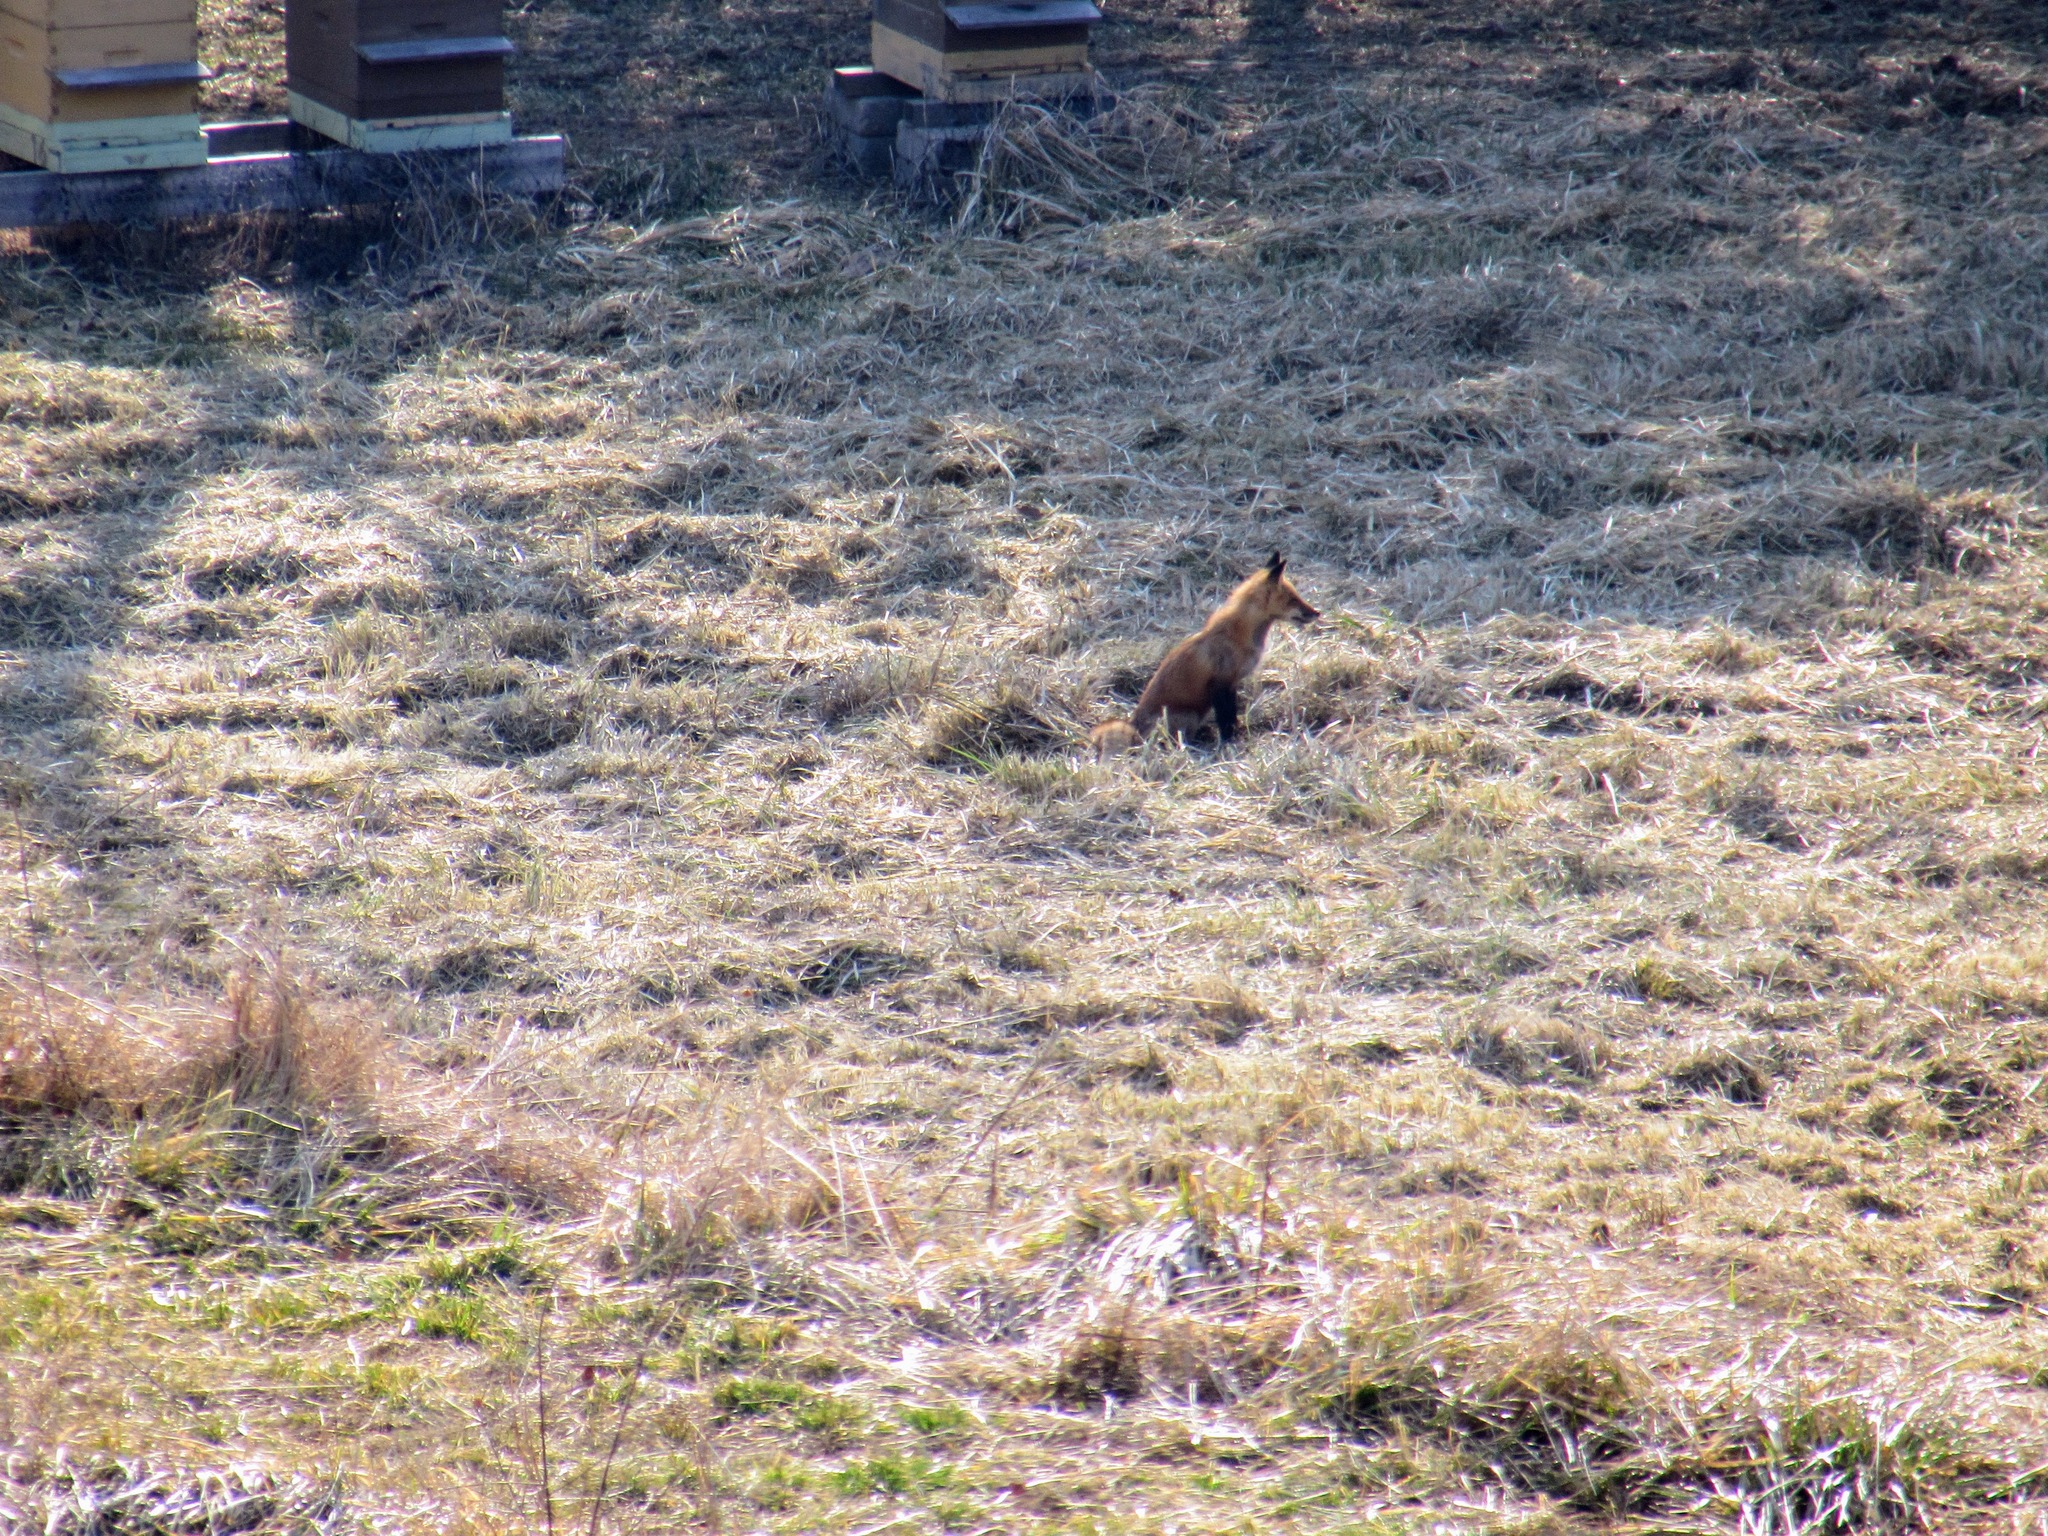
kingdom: Animalia
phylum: Chordata
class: Mammalia
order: Carnivora
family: Canidae
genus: Vulpes
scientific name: Vulpes vulpes
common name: Red fox
